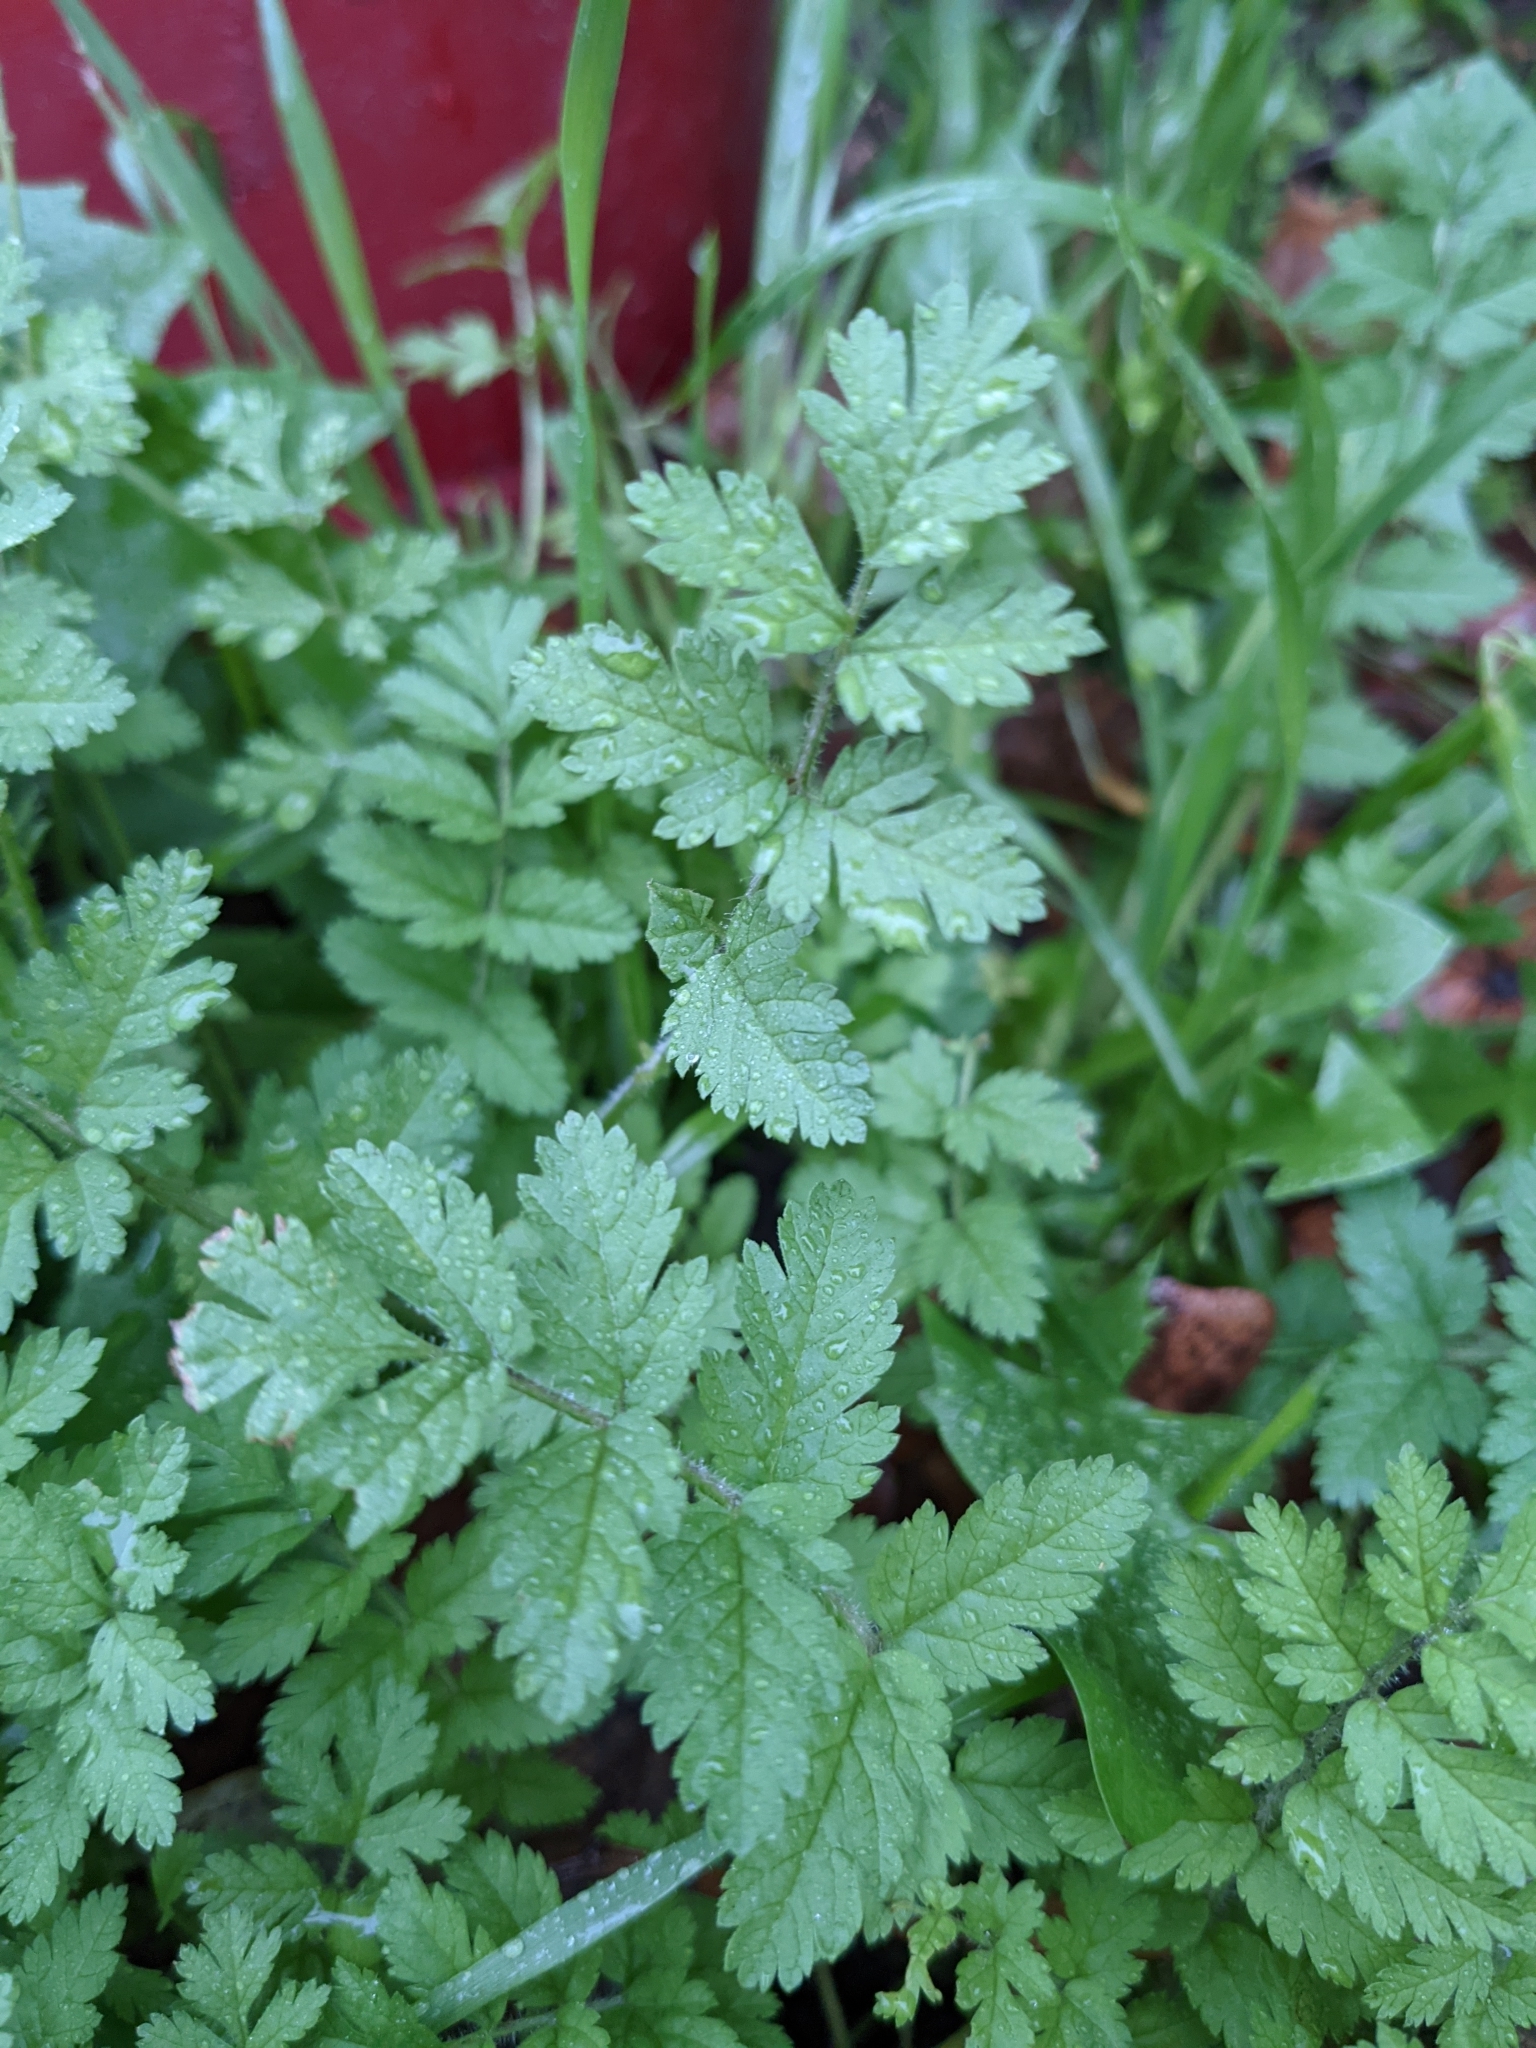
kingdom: Plantae
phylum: Tracheophyta
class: Magnoliopsida
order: Geraniales
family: Geraniaceae
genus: Erodium
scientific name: Erodium cicutarium
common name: Common stork's-bill
